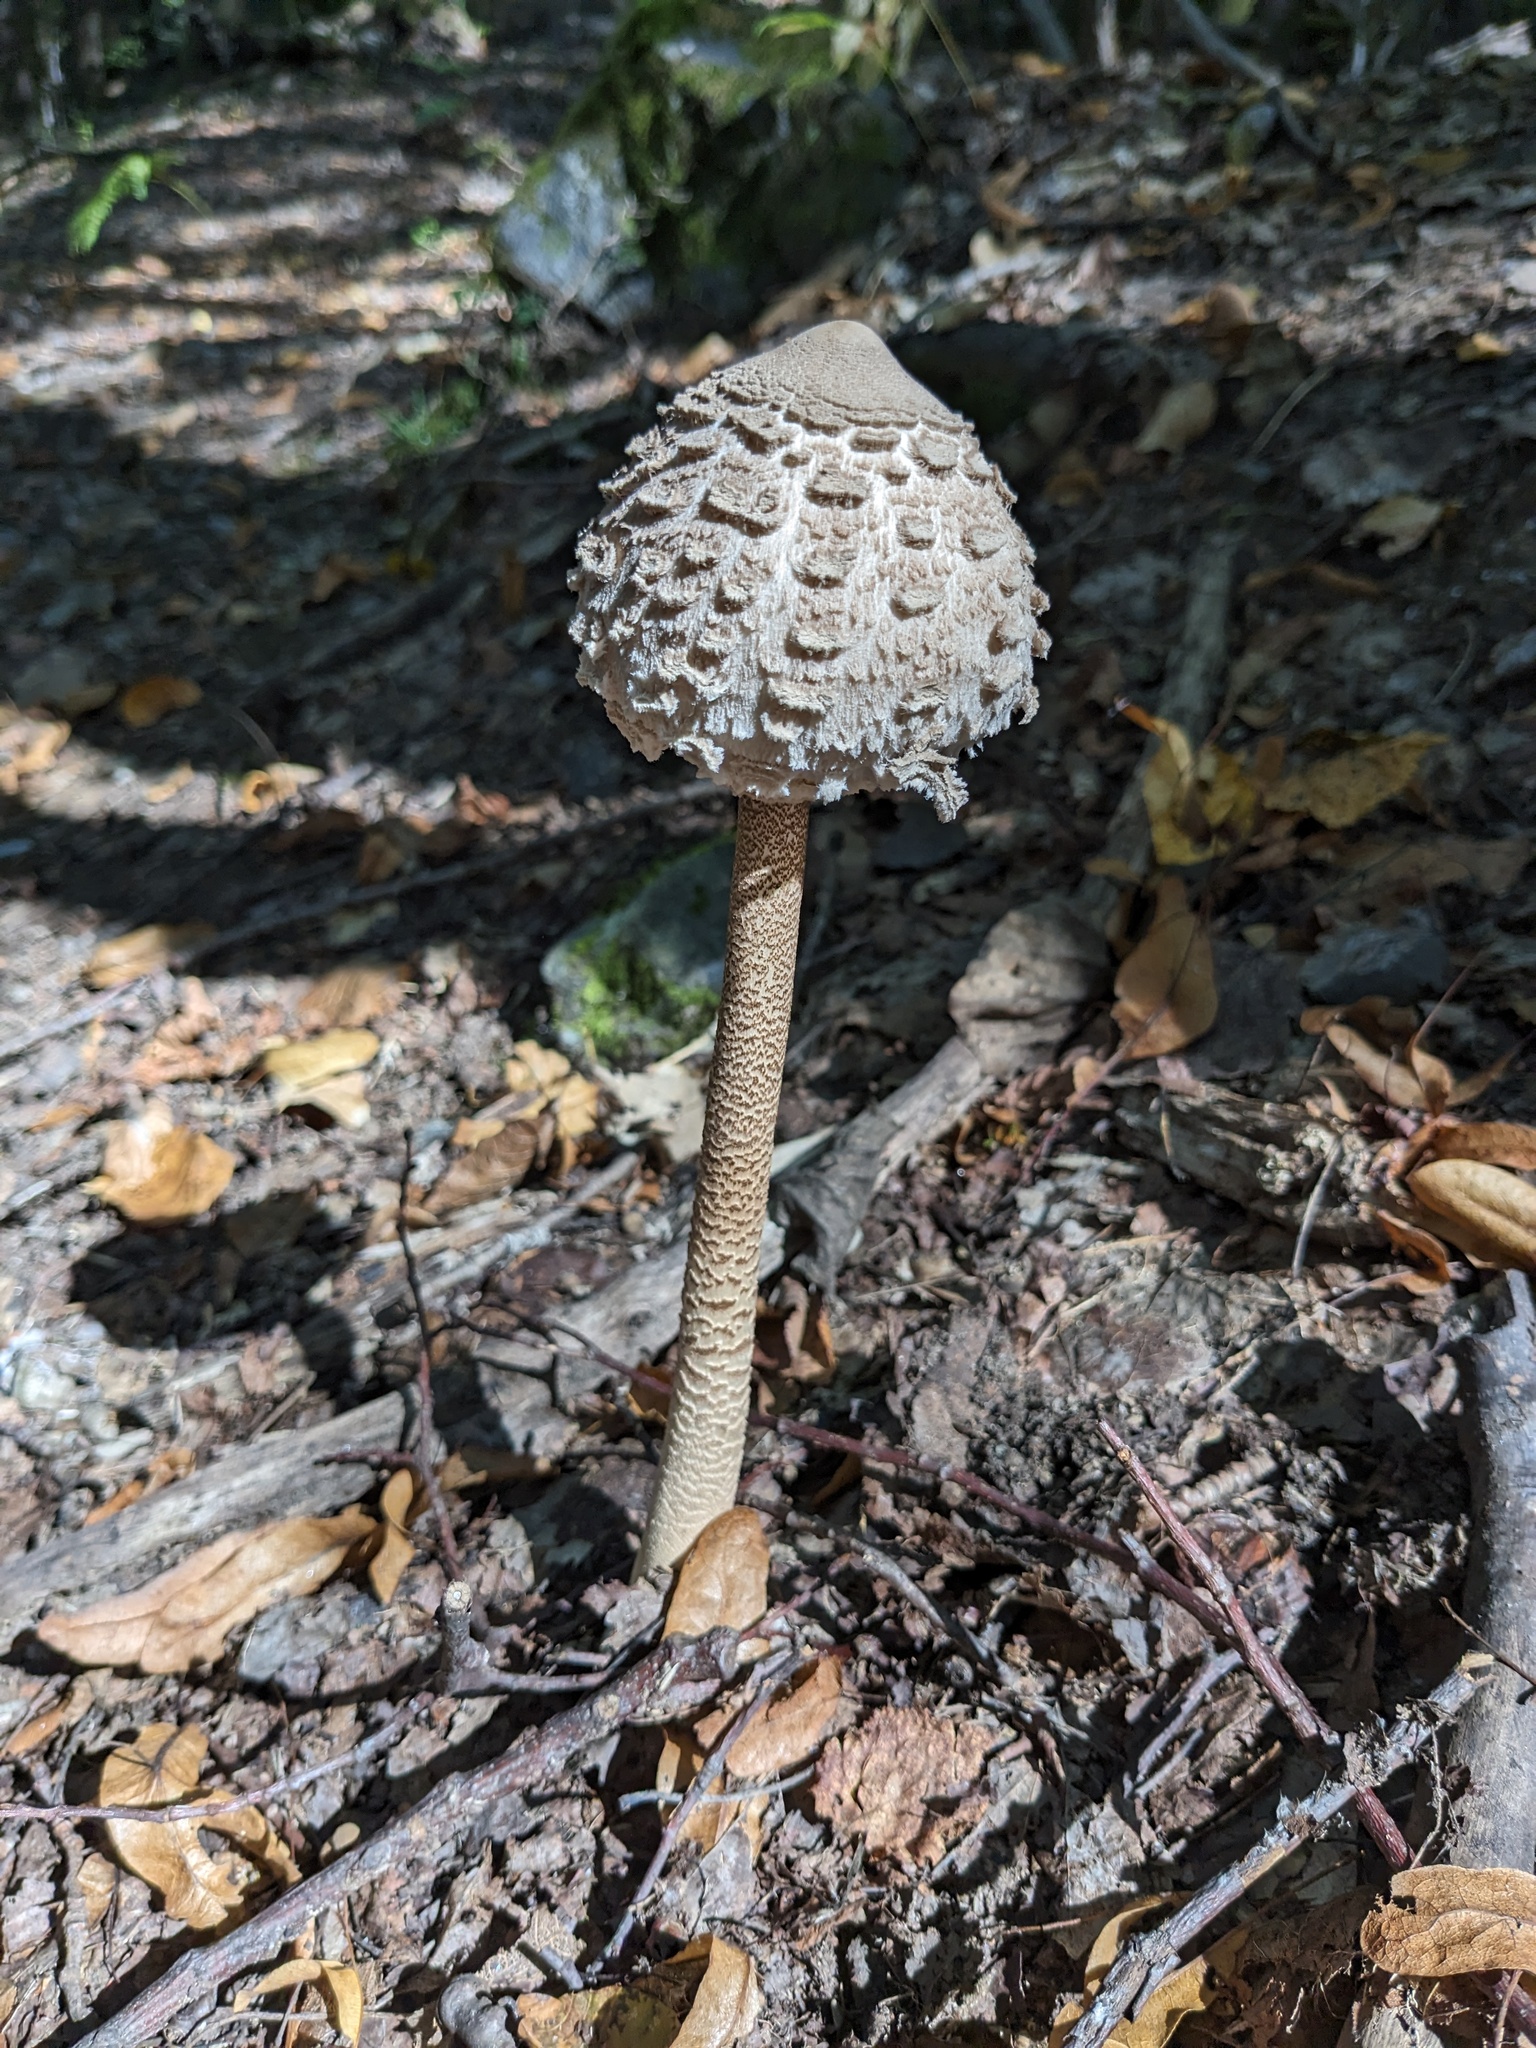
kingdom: Fungi
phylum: Basidiomycota
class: Agaricomycetes
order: Agaricales
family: Agaricaceae
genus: Macrolepiota
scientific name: Macrolepiota procera
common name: Parasol
